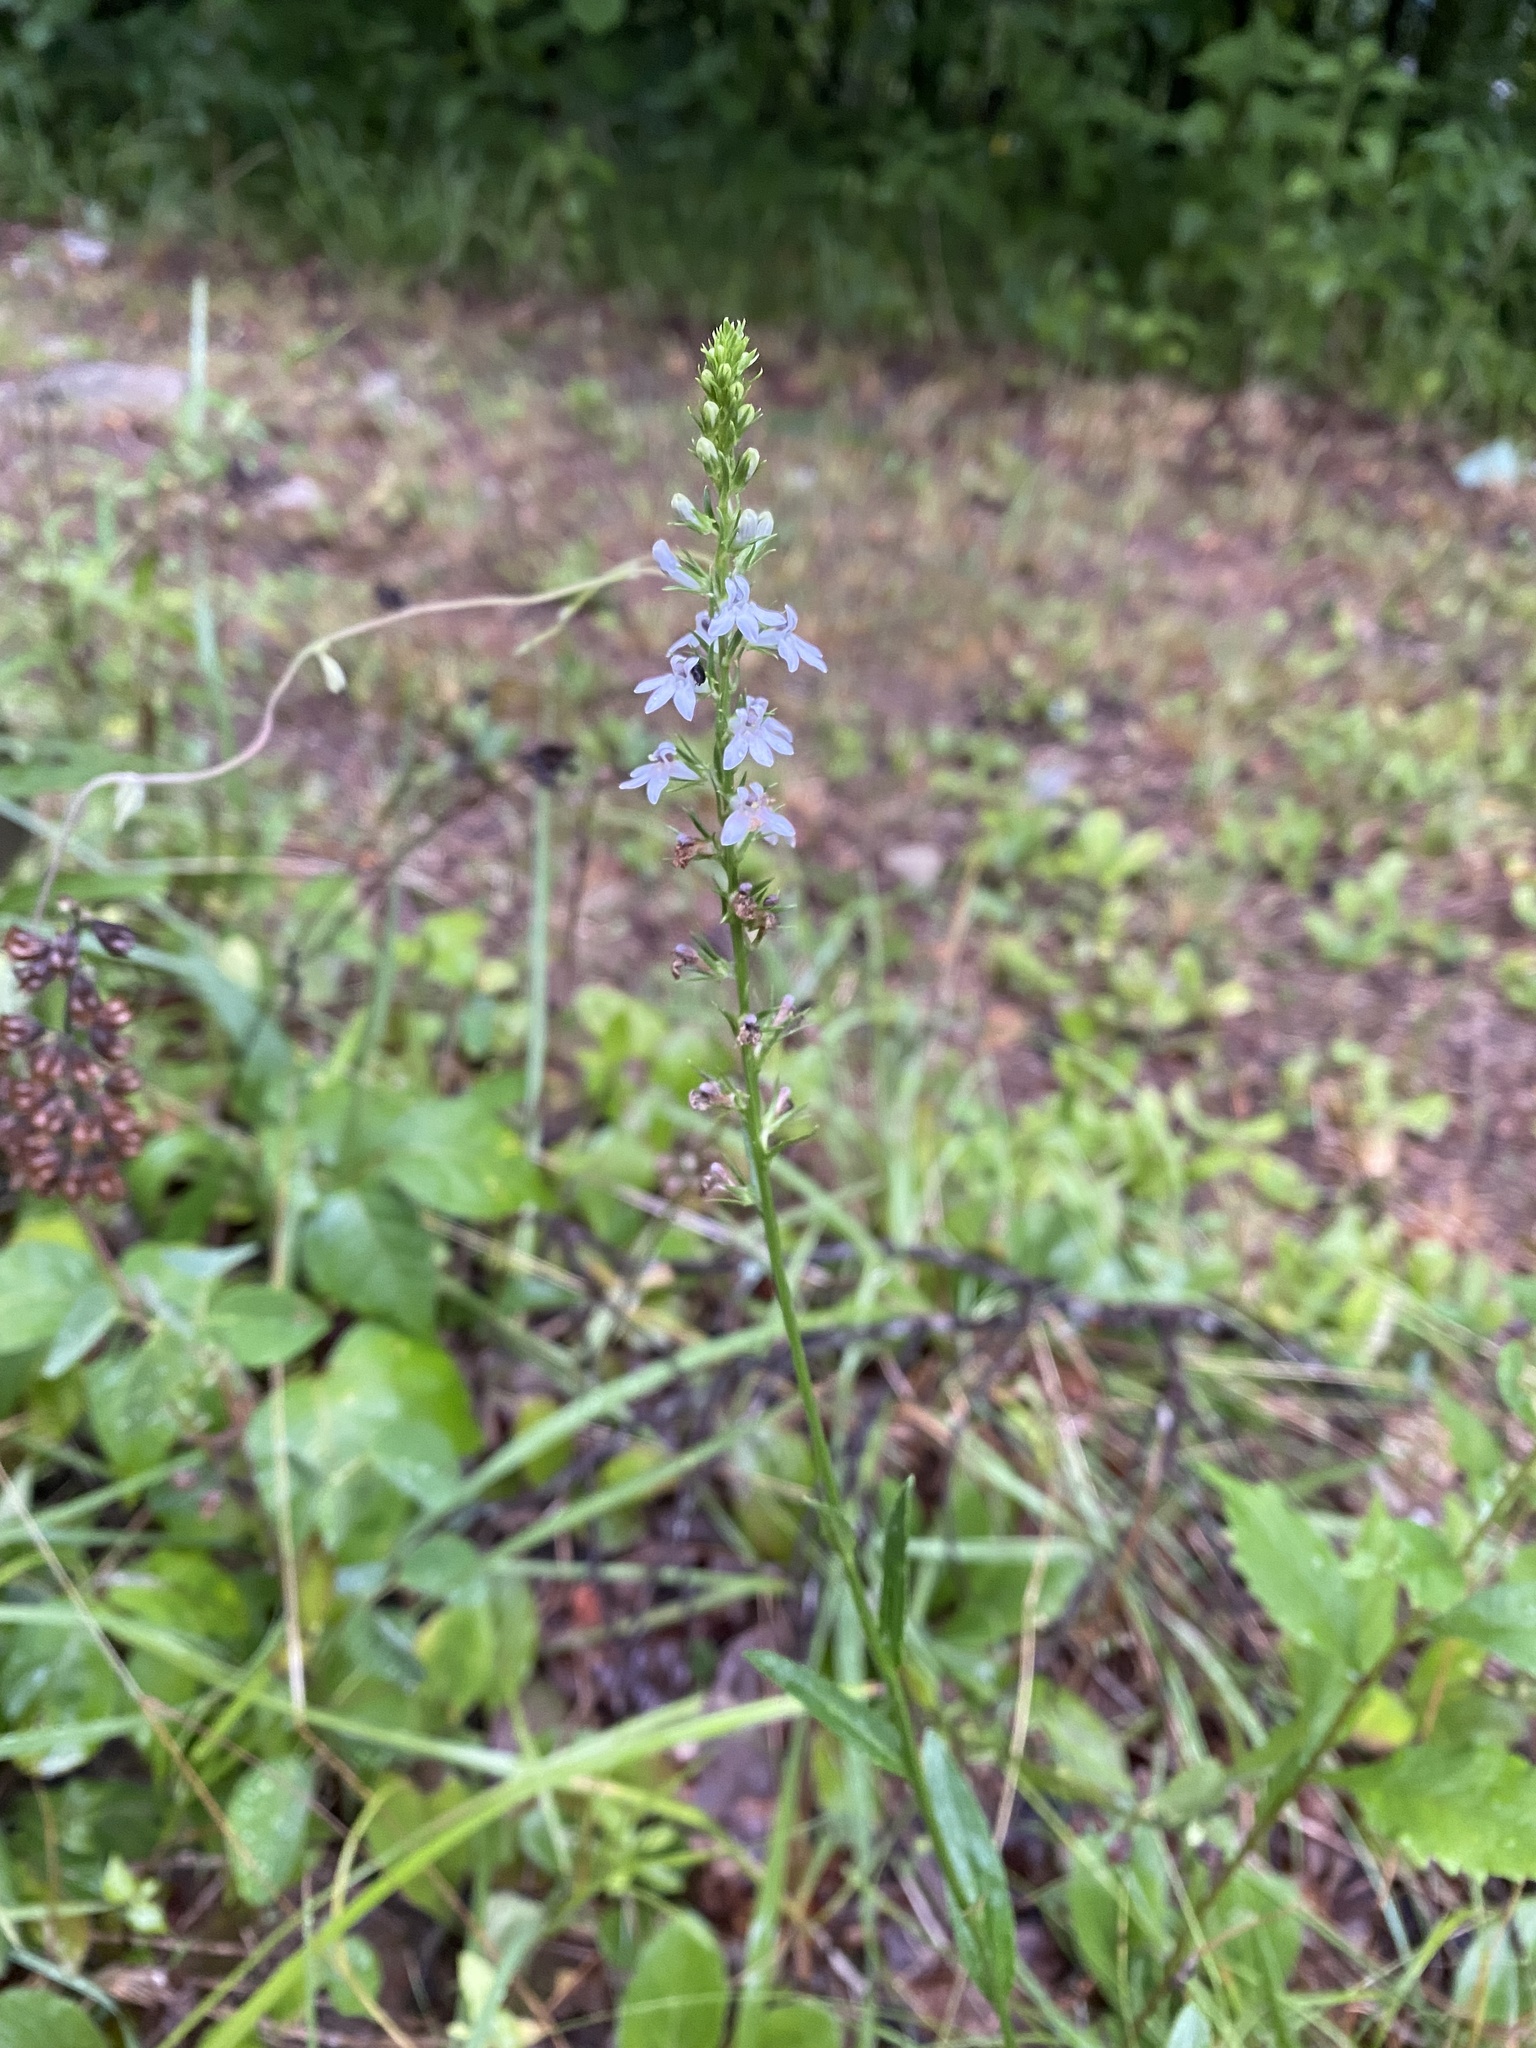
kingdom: Plantae
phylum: Tracheophyta
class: Magnoliopsida
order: Asterales
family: Campanulaceae
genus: Lobelia
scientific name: Lobelia spicata
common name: Pale-spike lobelia
